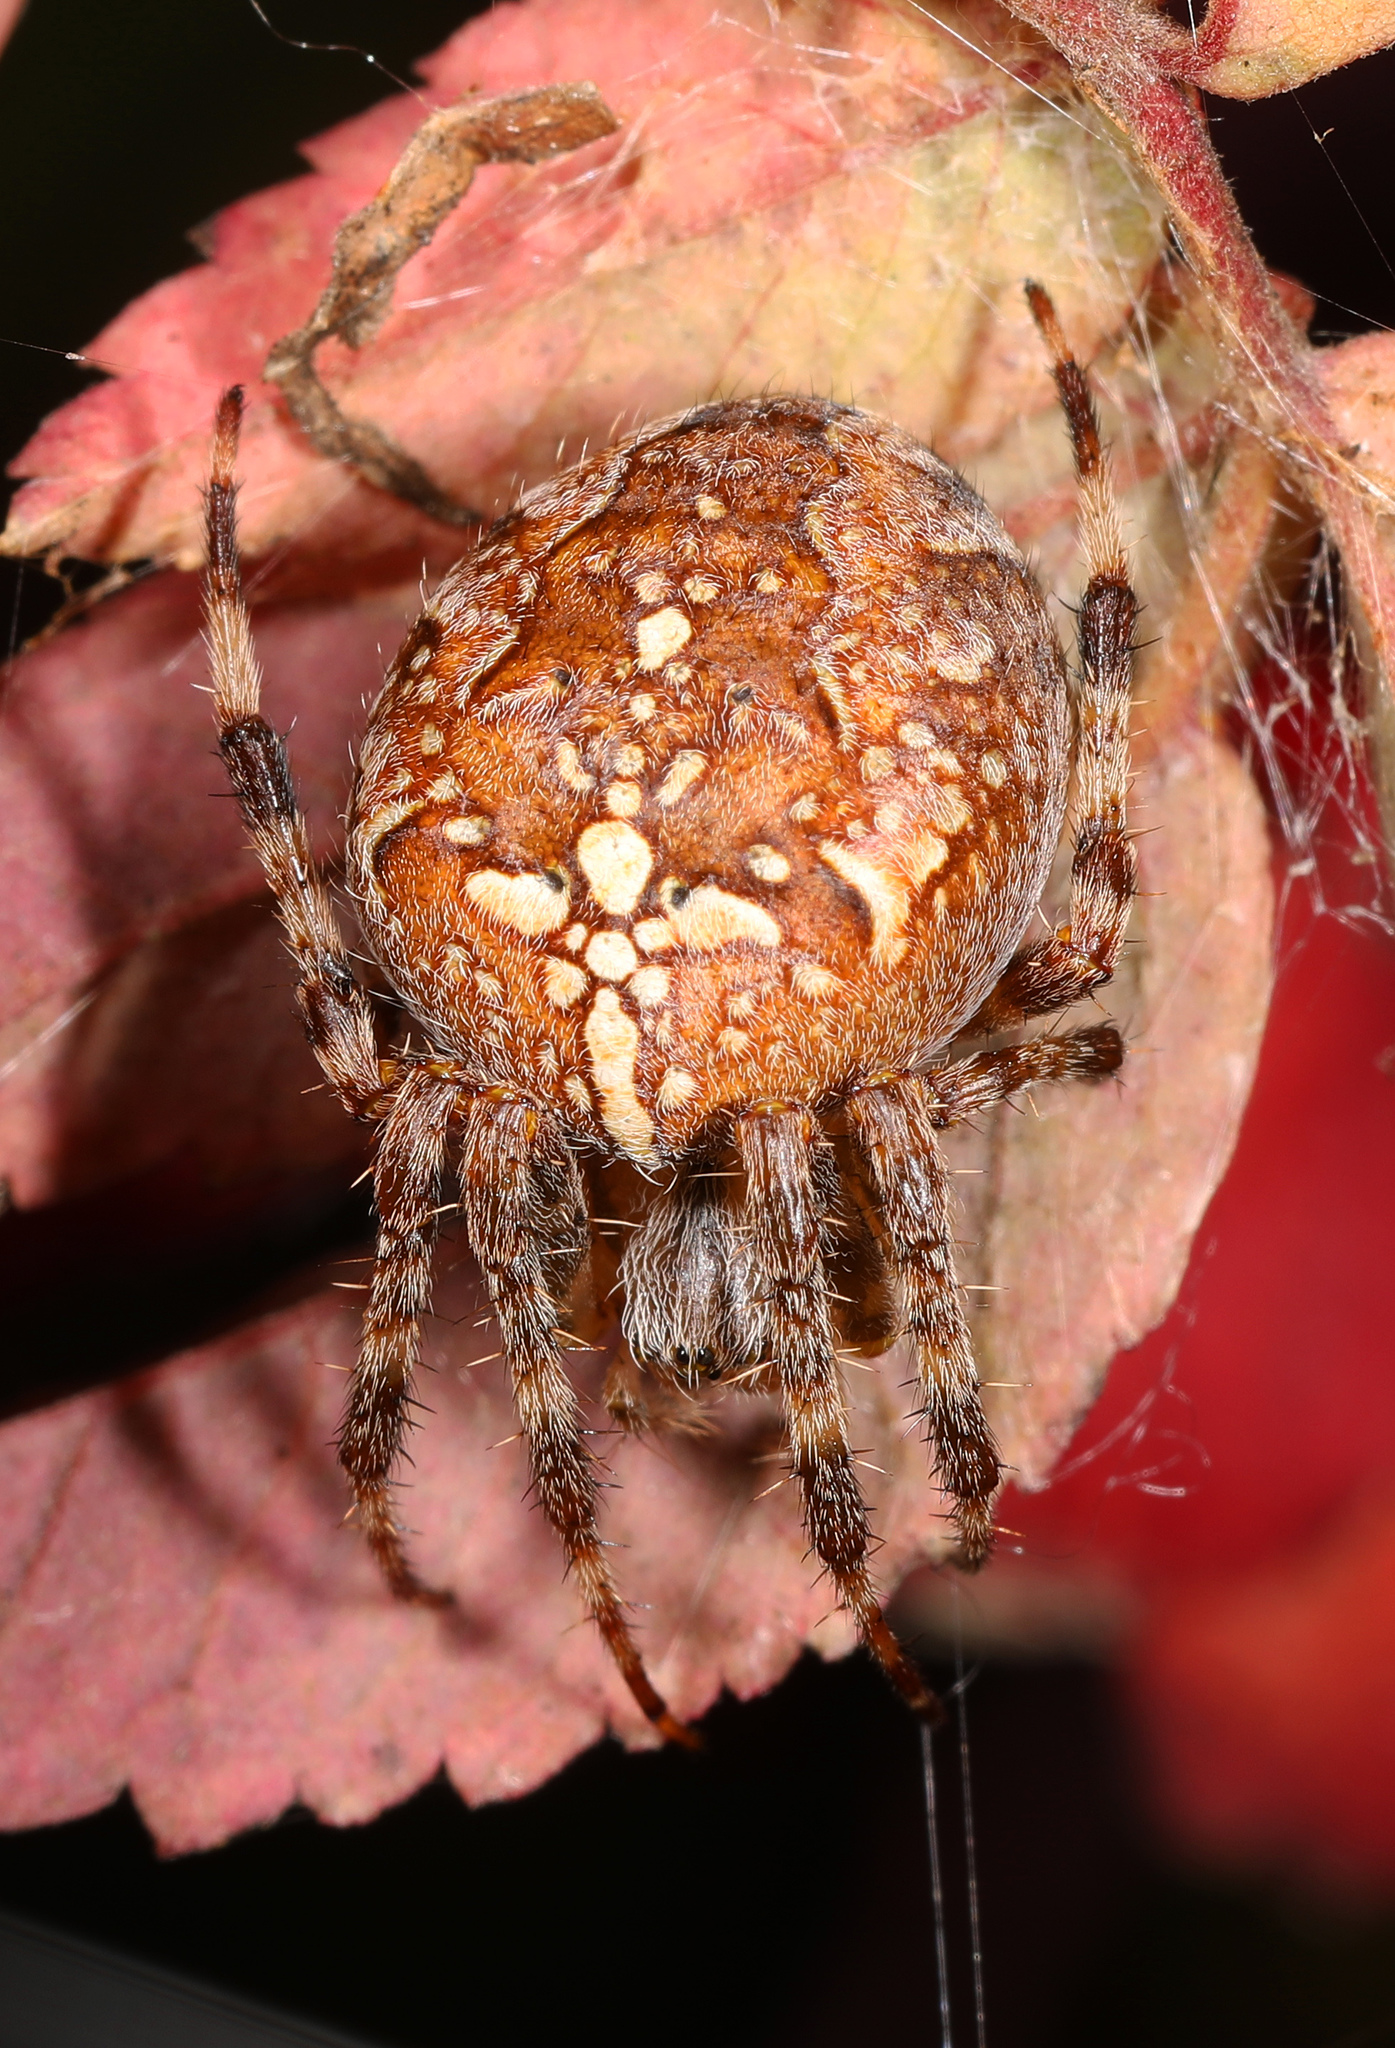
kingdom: Animalia
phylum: Arthropoda
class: Arachnida
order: Araneae
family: Araneidae
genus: Araneus
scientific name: Araneus diadematus
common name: Cross orbweaver
